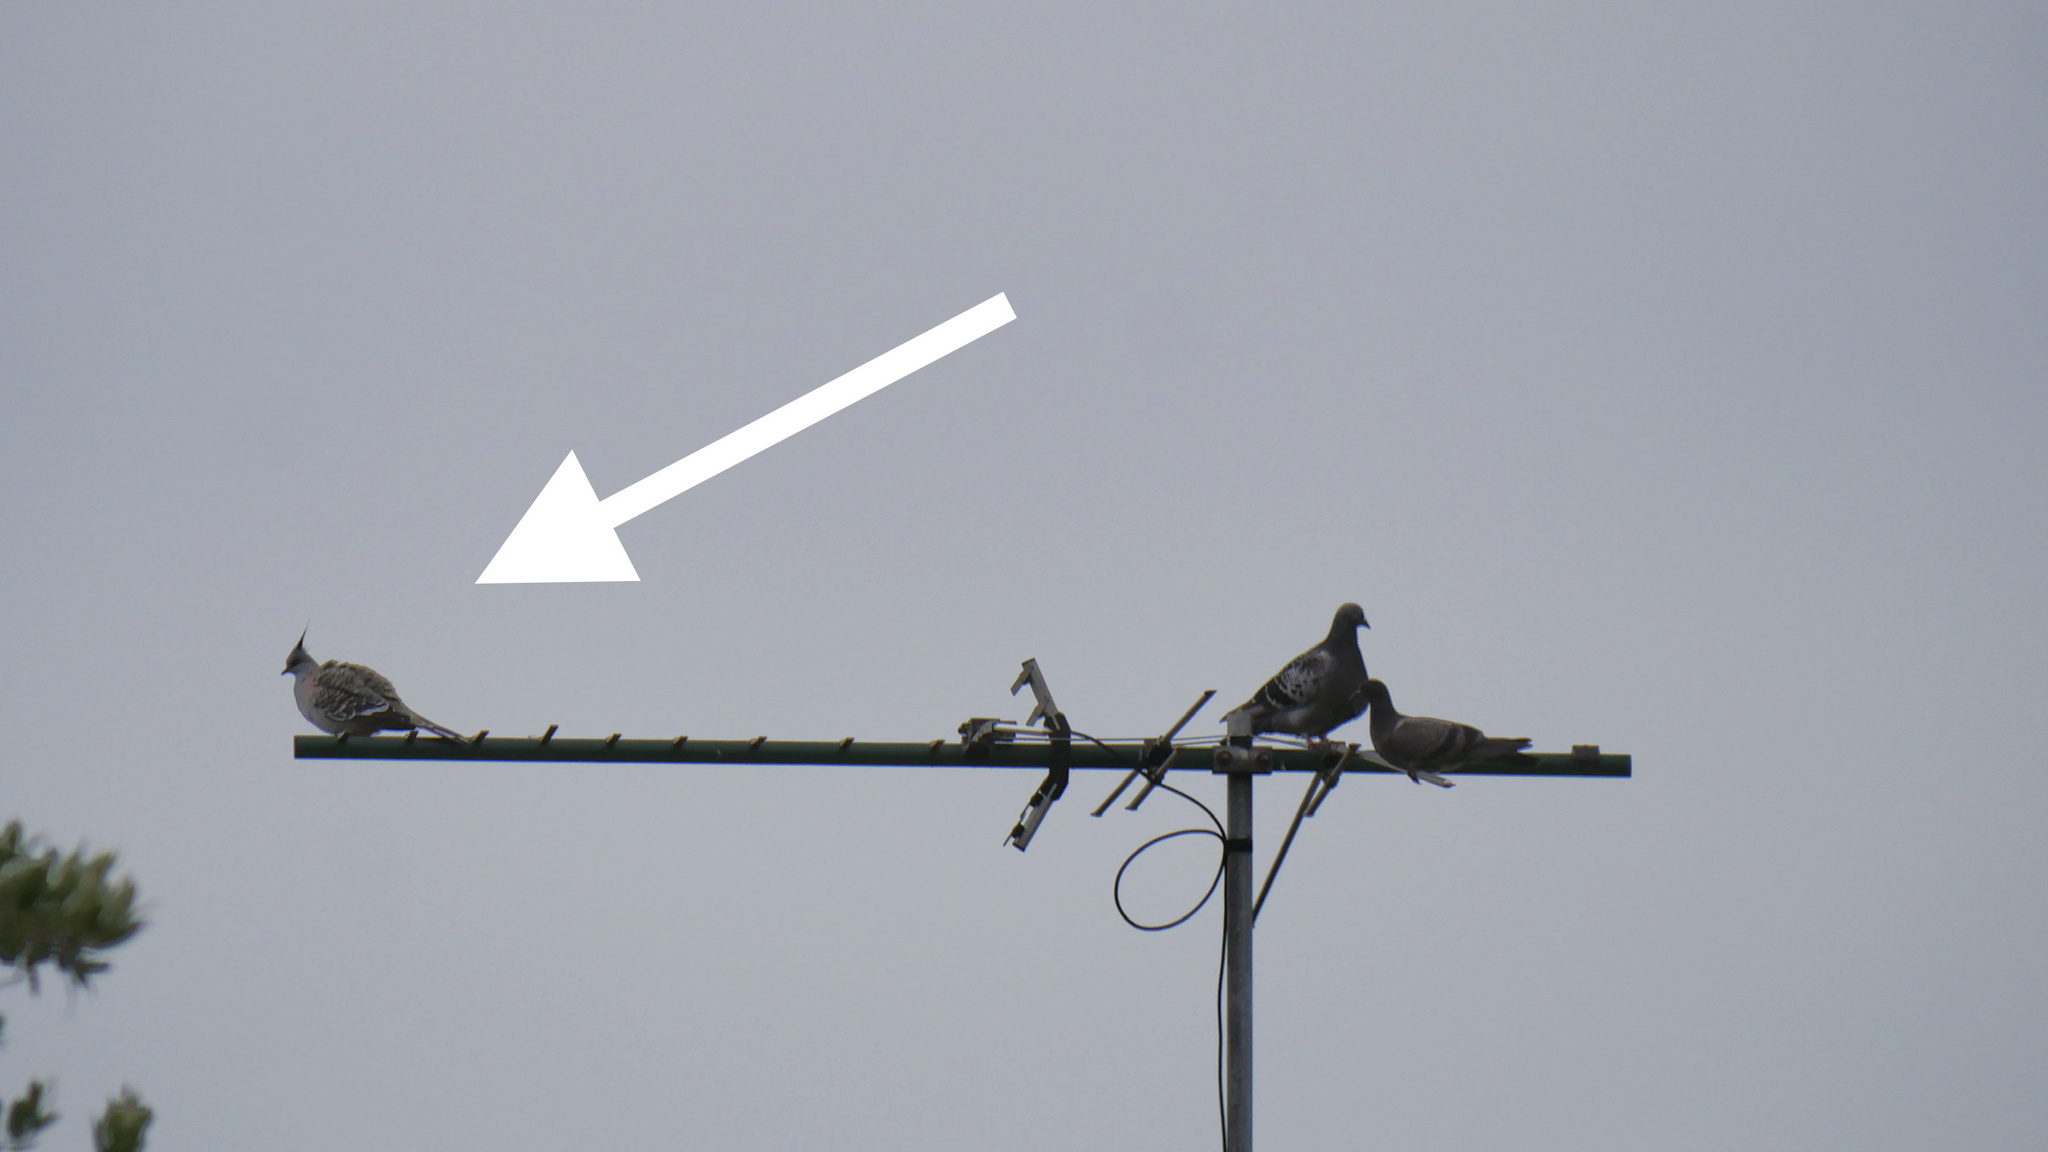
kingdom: Animalia
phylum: Chordata
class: Aves
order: Columbiformes
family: Columbidae
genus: Ocyphaps
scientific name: Ocyphaps lophotes
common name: Crested pigeon
